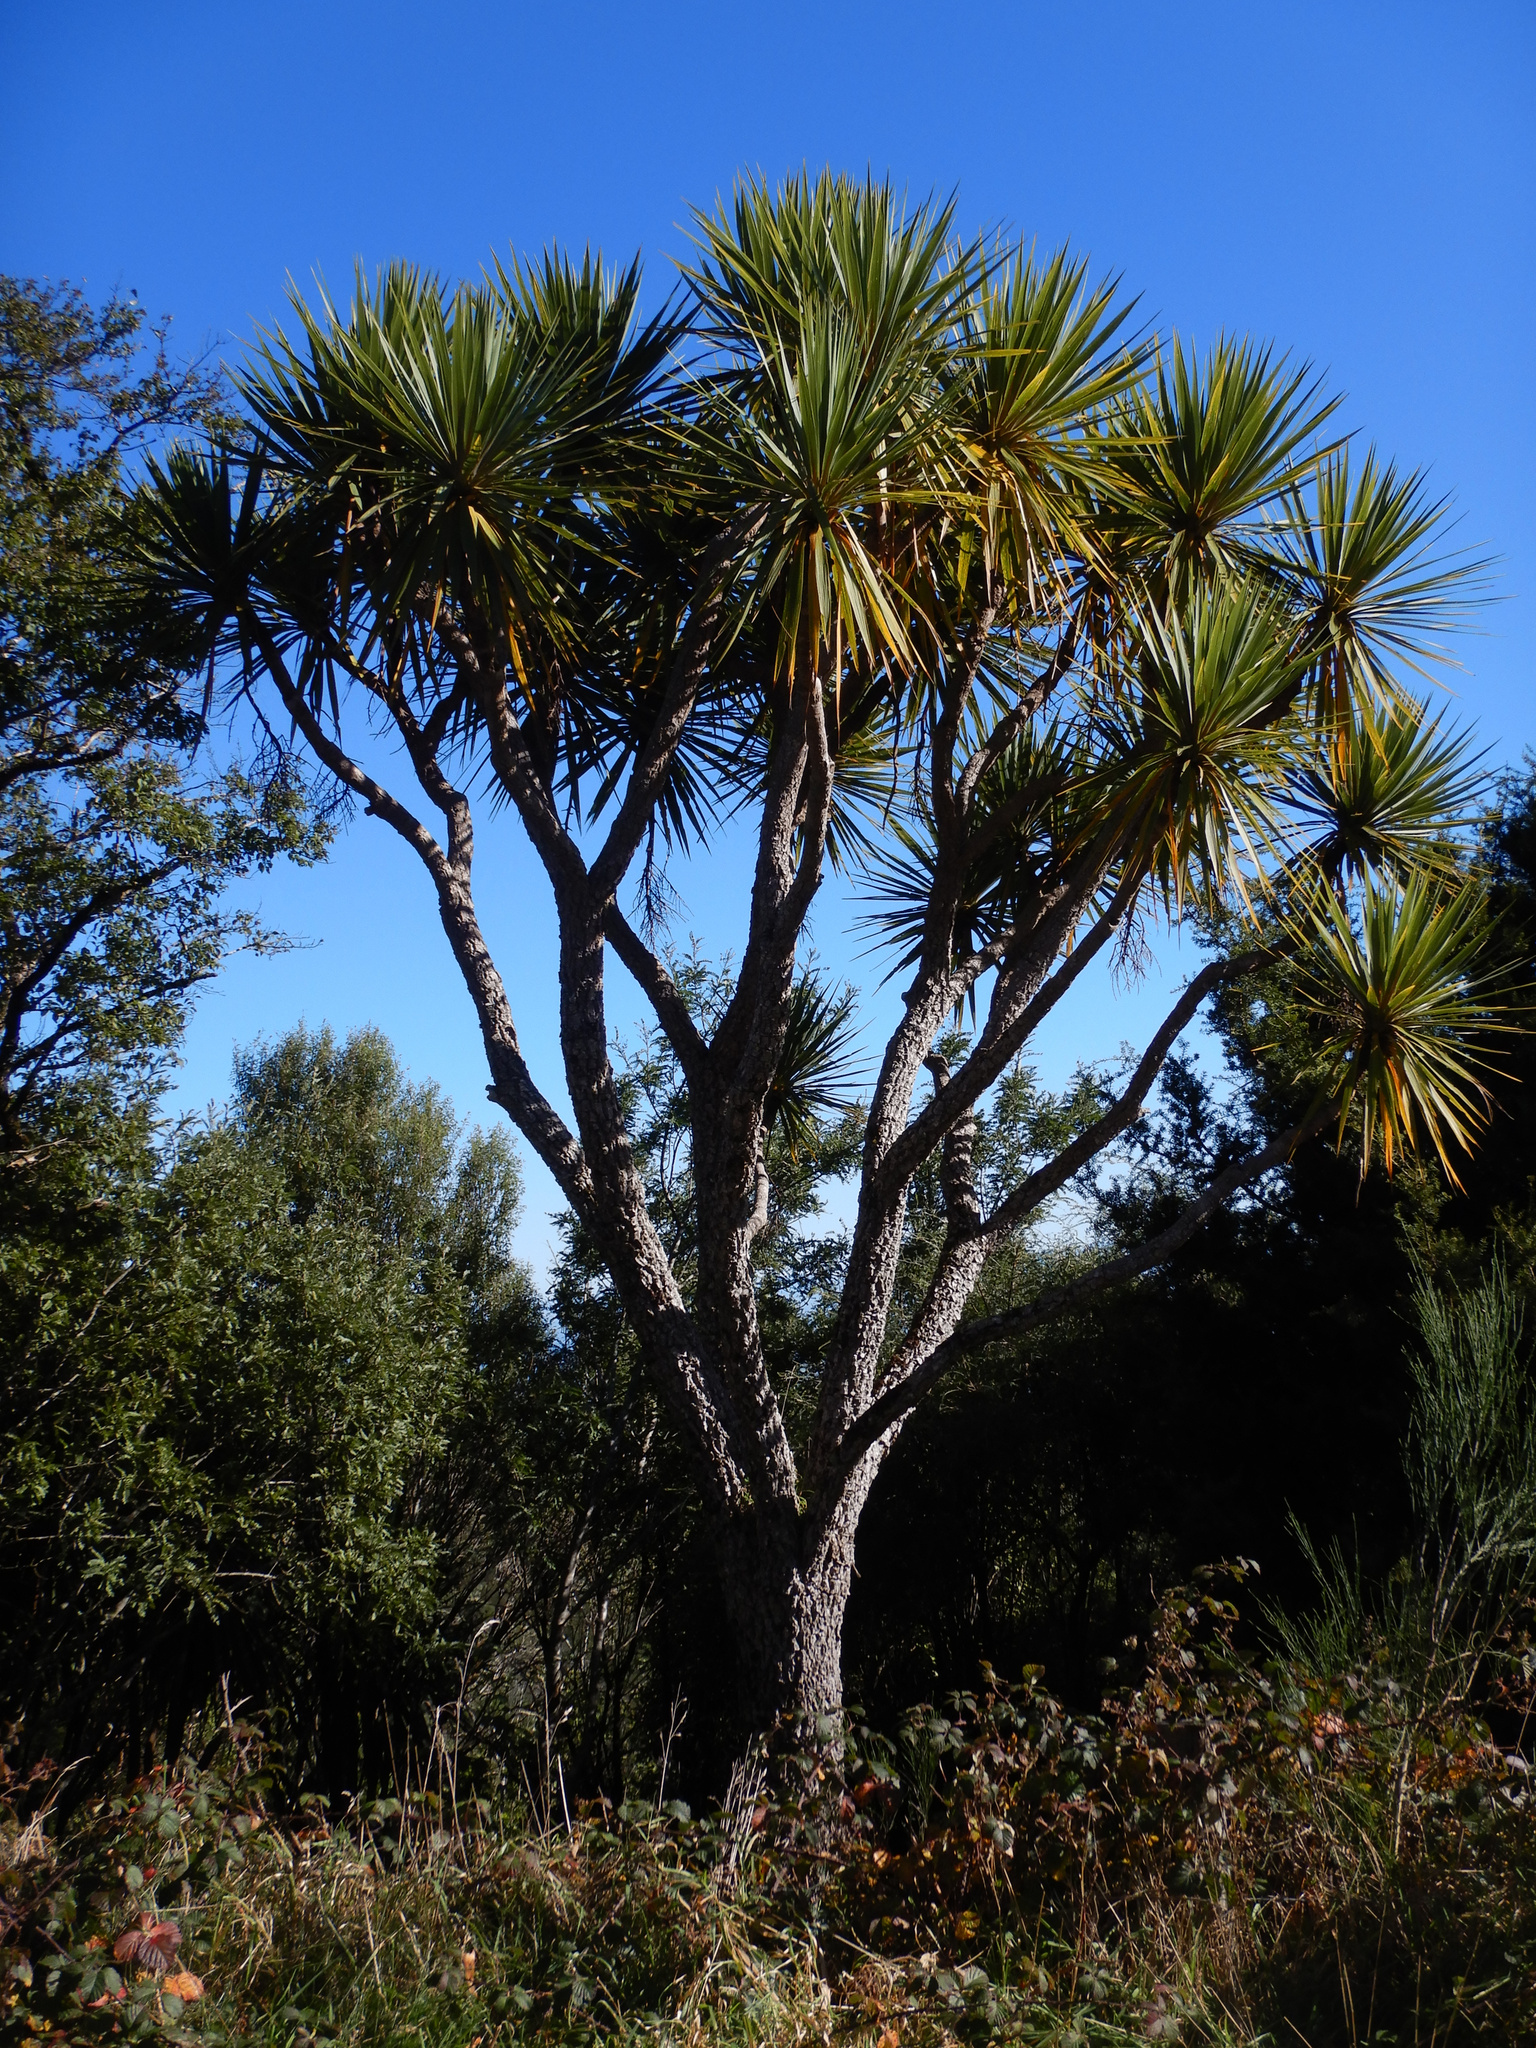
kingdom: Plantae
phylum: Tracheophyta
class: Liliopsida
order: Asparagales
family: Asparagaceae
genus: Cordyline
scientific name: Cordyline australis
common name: Cabbage-palm
